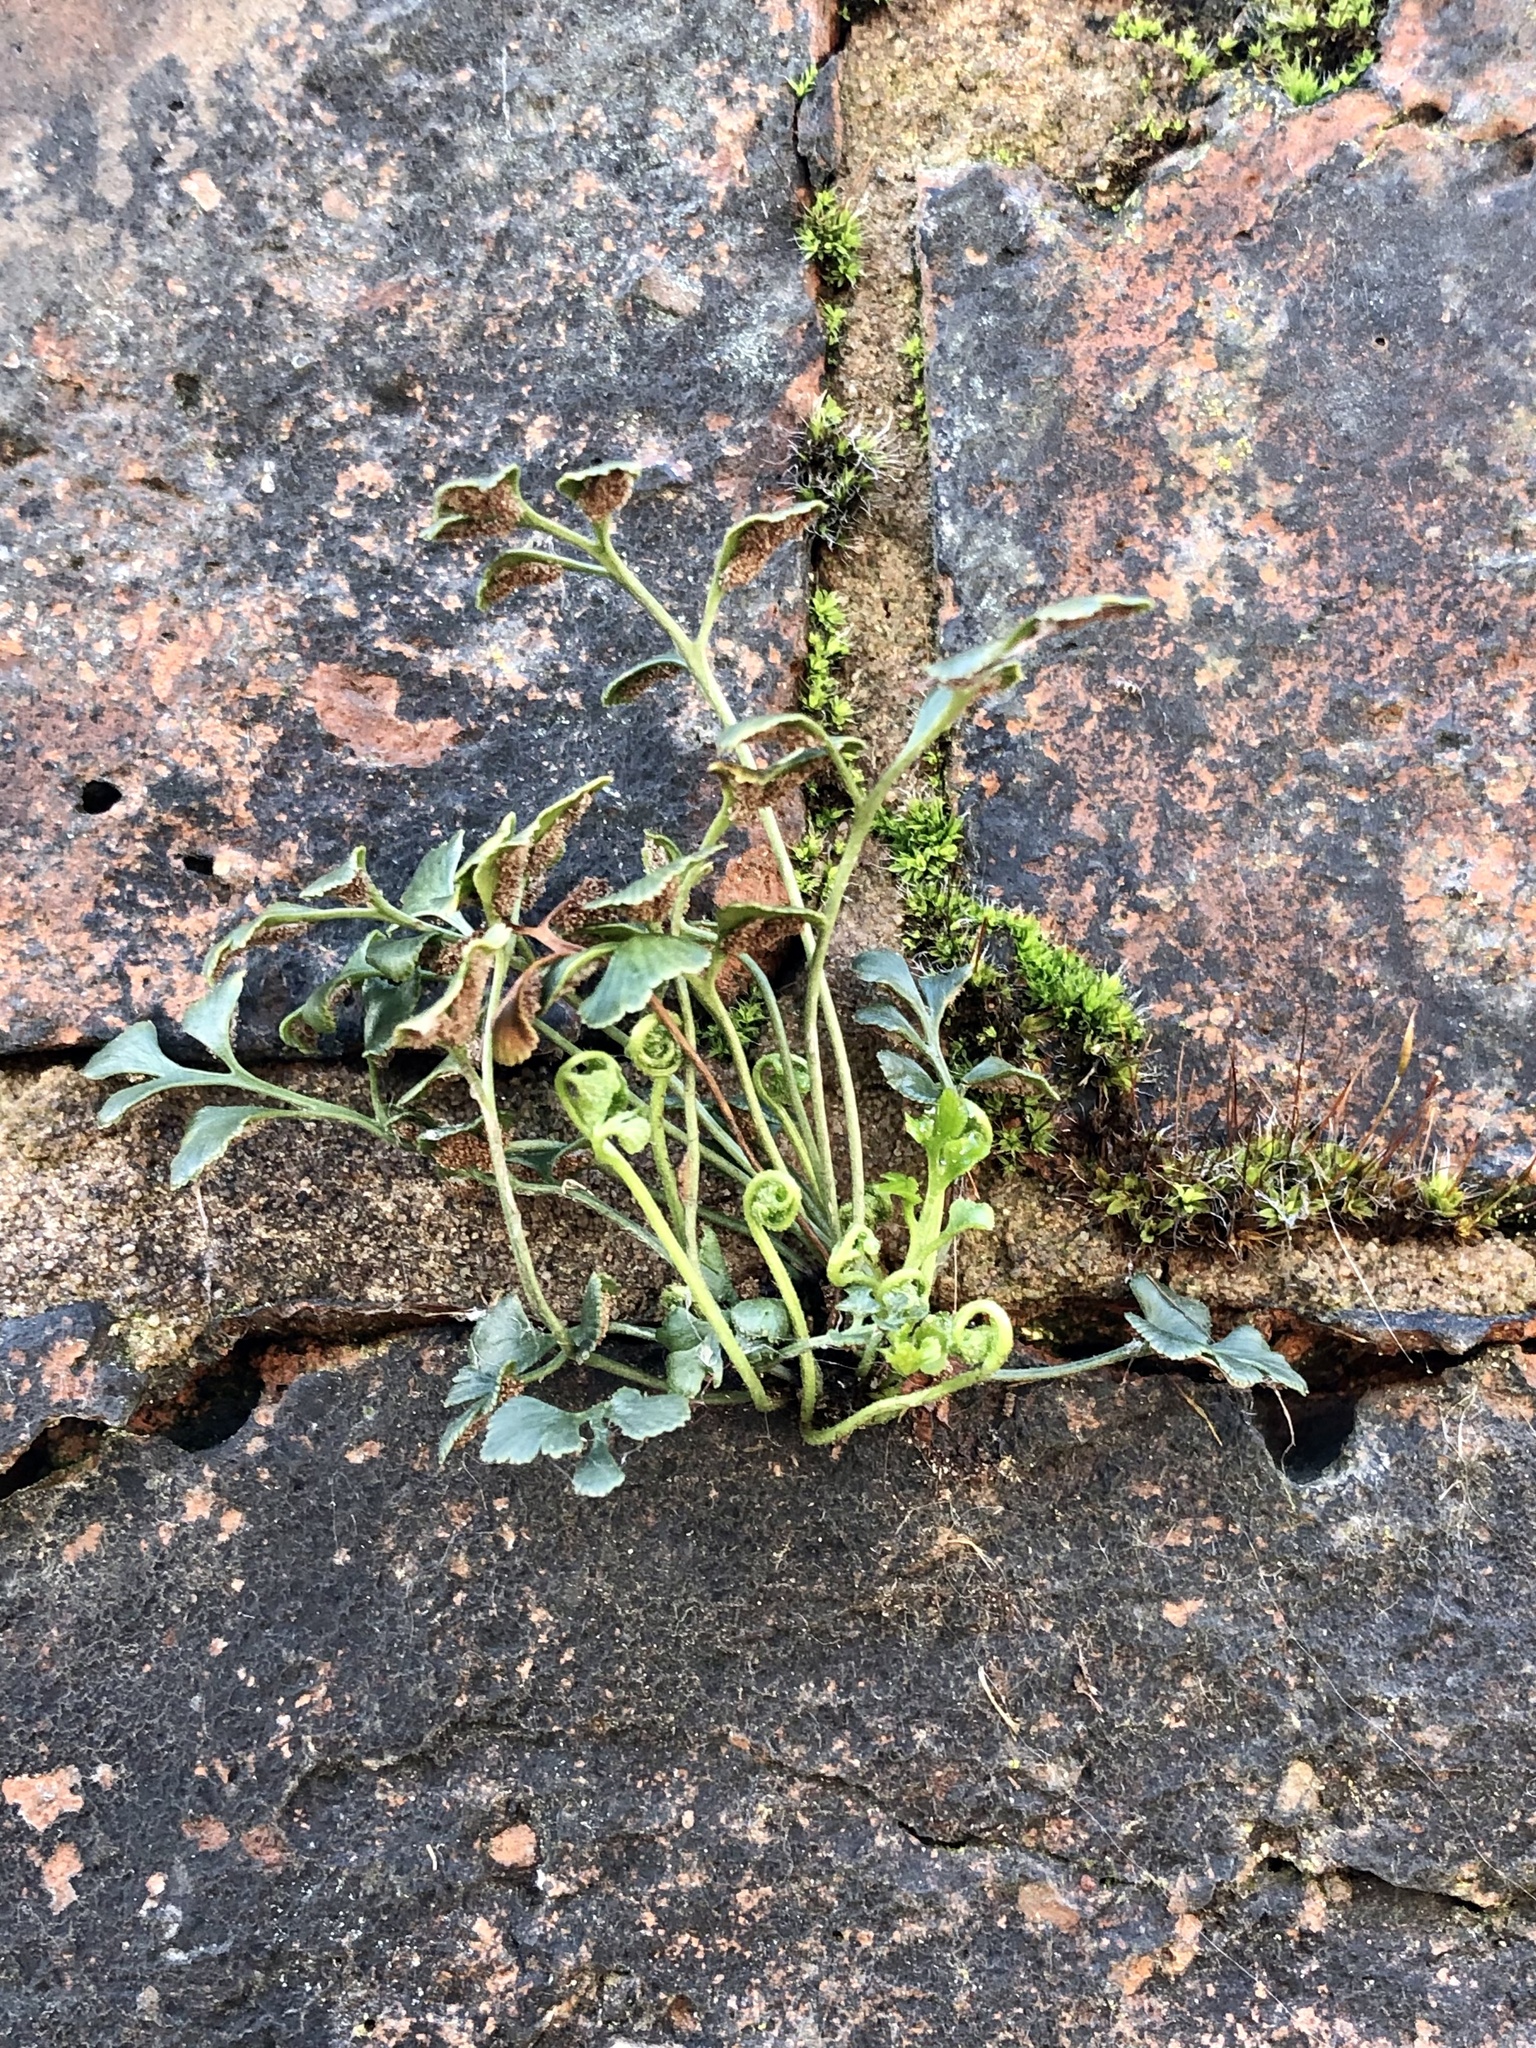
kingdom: Plantae
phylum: Tracheophyta
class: Polypodiopsida
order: Polypodiales
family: Aspleniaceae
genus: Asplenium
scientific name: Asplenium ruta-muraria
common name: Wall-rue
